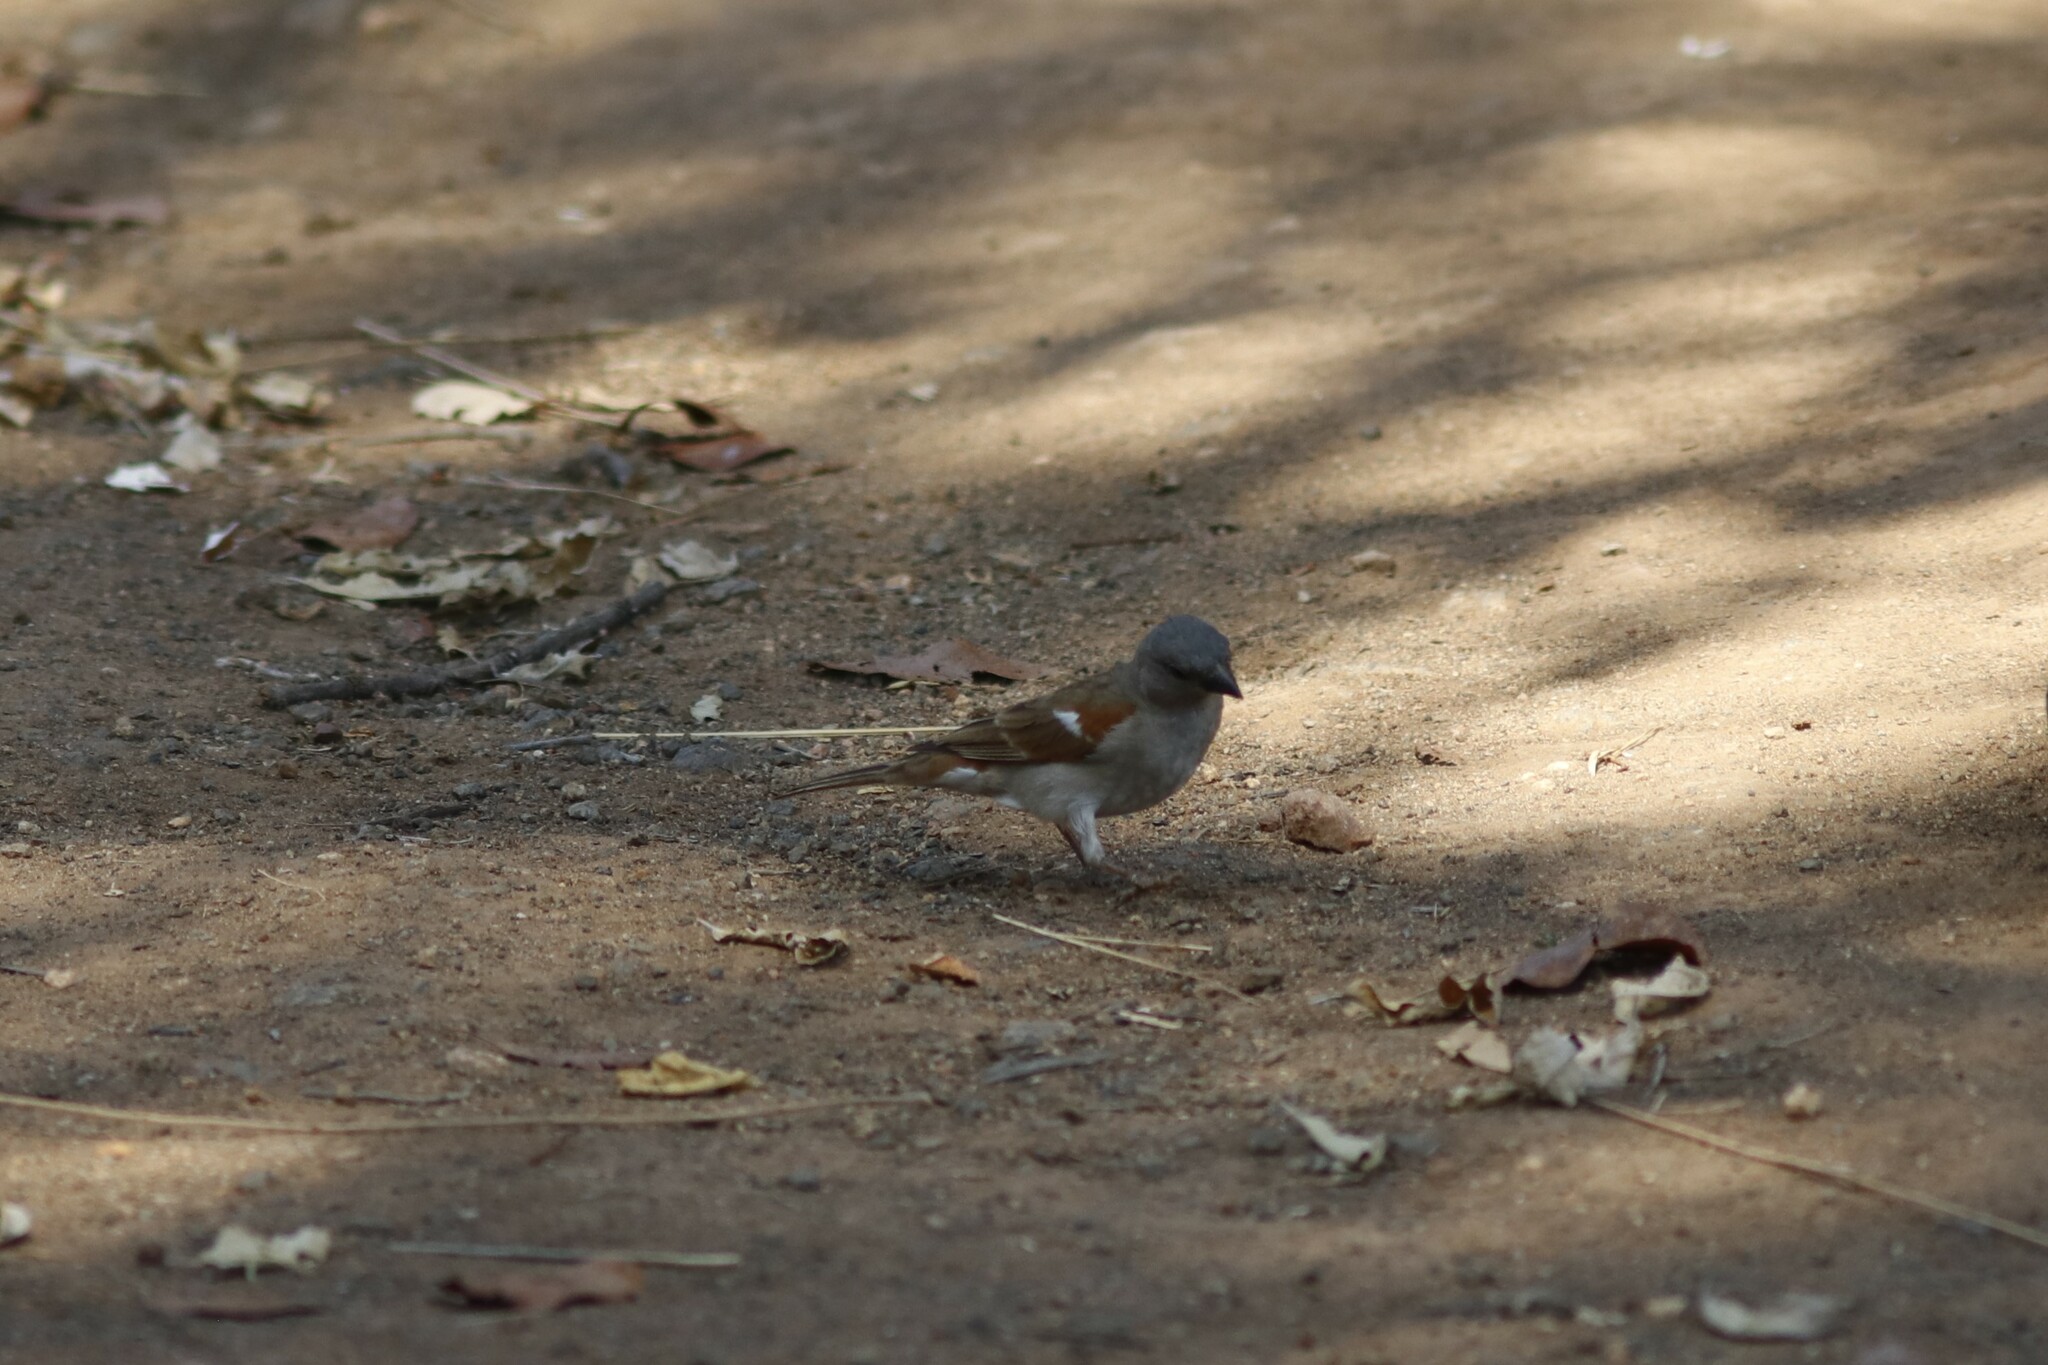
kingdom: Animalia
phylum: Chordata
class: Aves
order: Passeriformes
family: Passeridae
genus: Passer
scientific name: Passer diffusus
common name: Southern grey-headed sparrow
